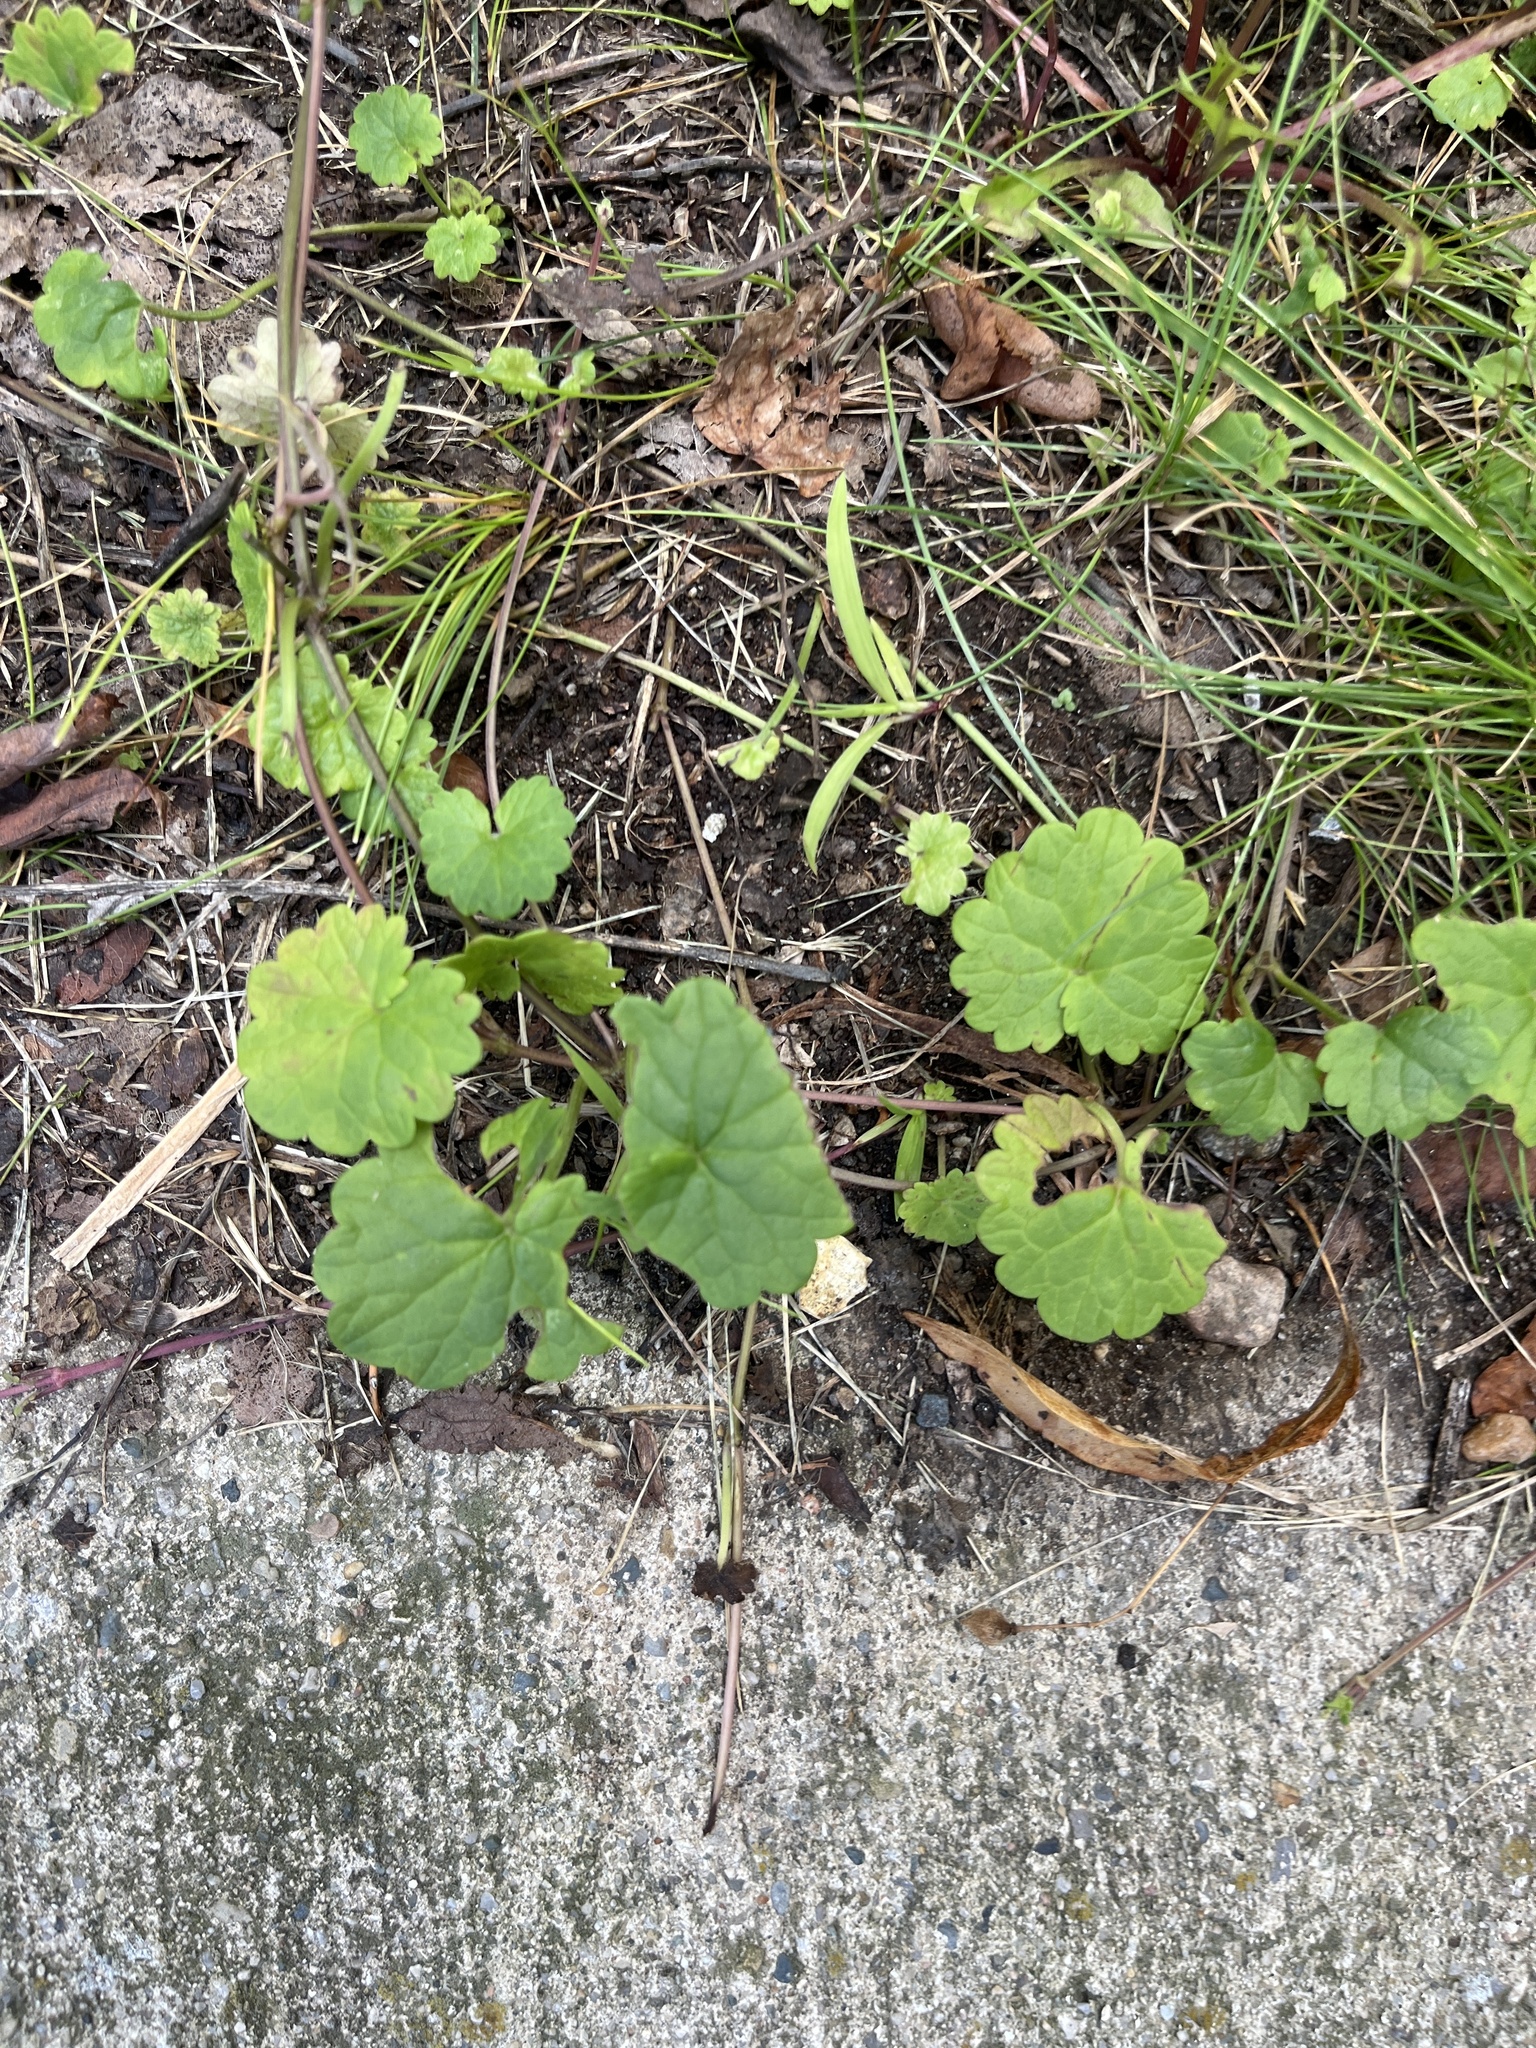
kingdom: Plantae
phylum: Tracheophyta
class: Magnoliopsida
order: Lamiales
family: Lamiaceae
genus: Glechoma
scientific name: Glechoma hederacea
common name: Ground ivy
